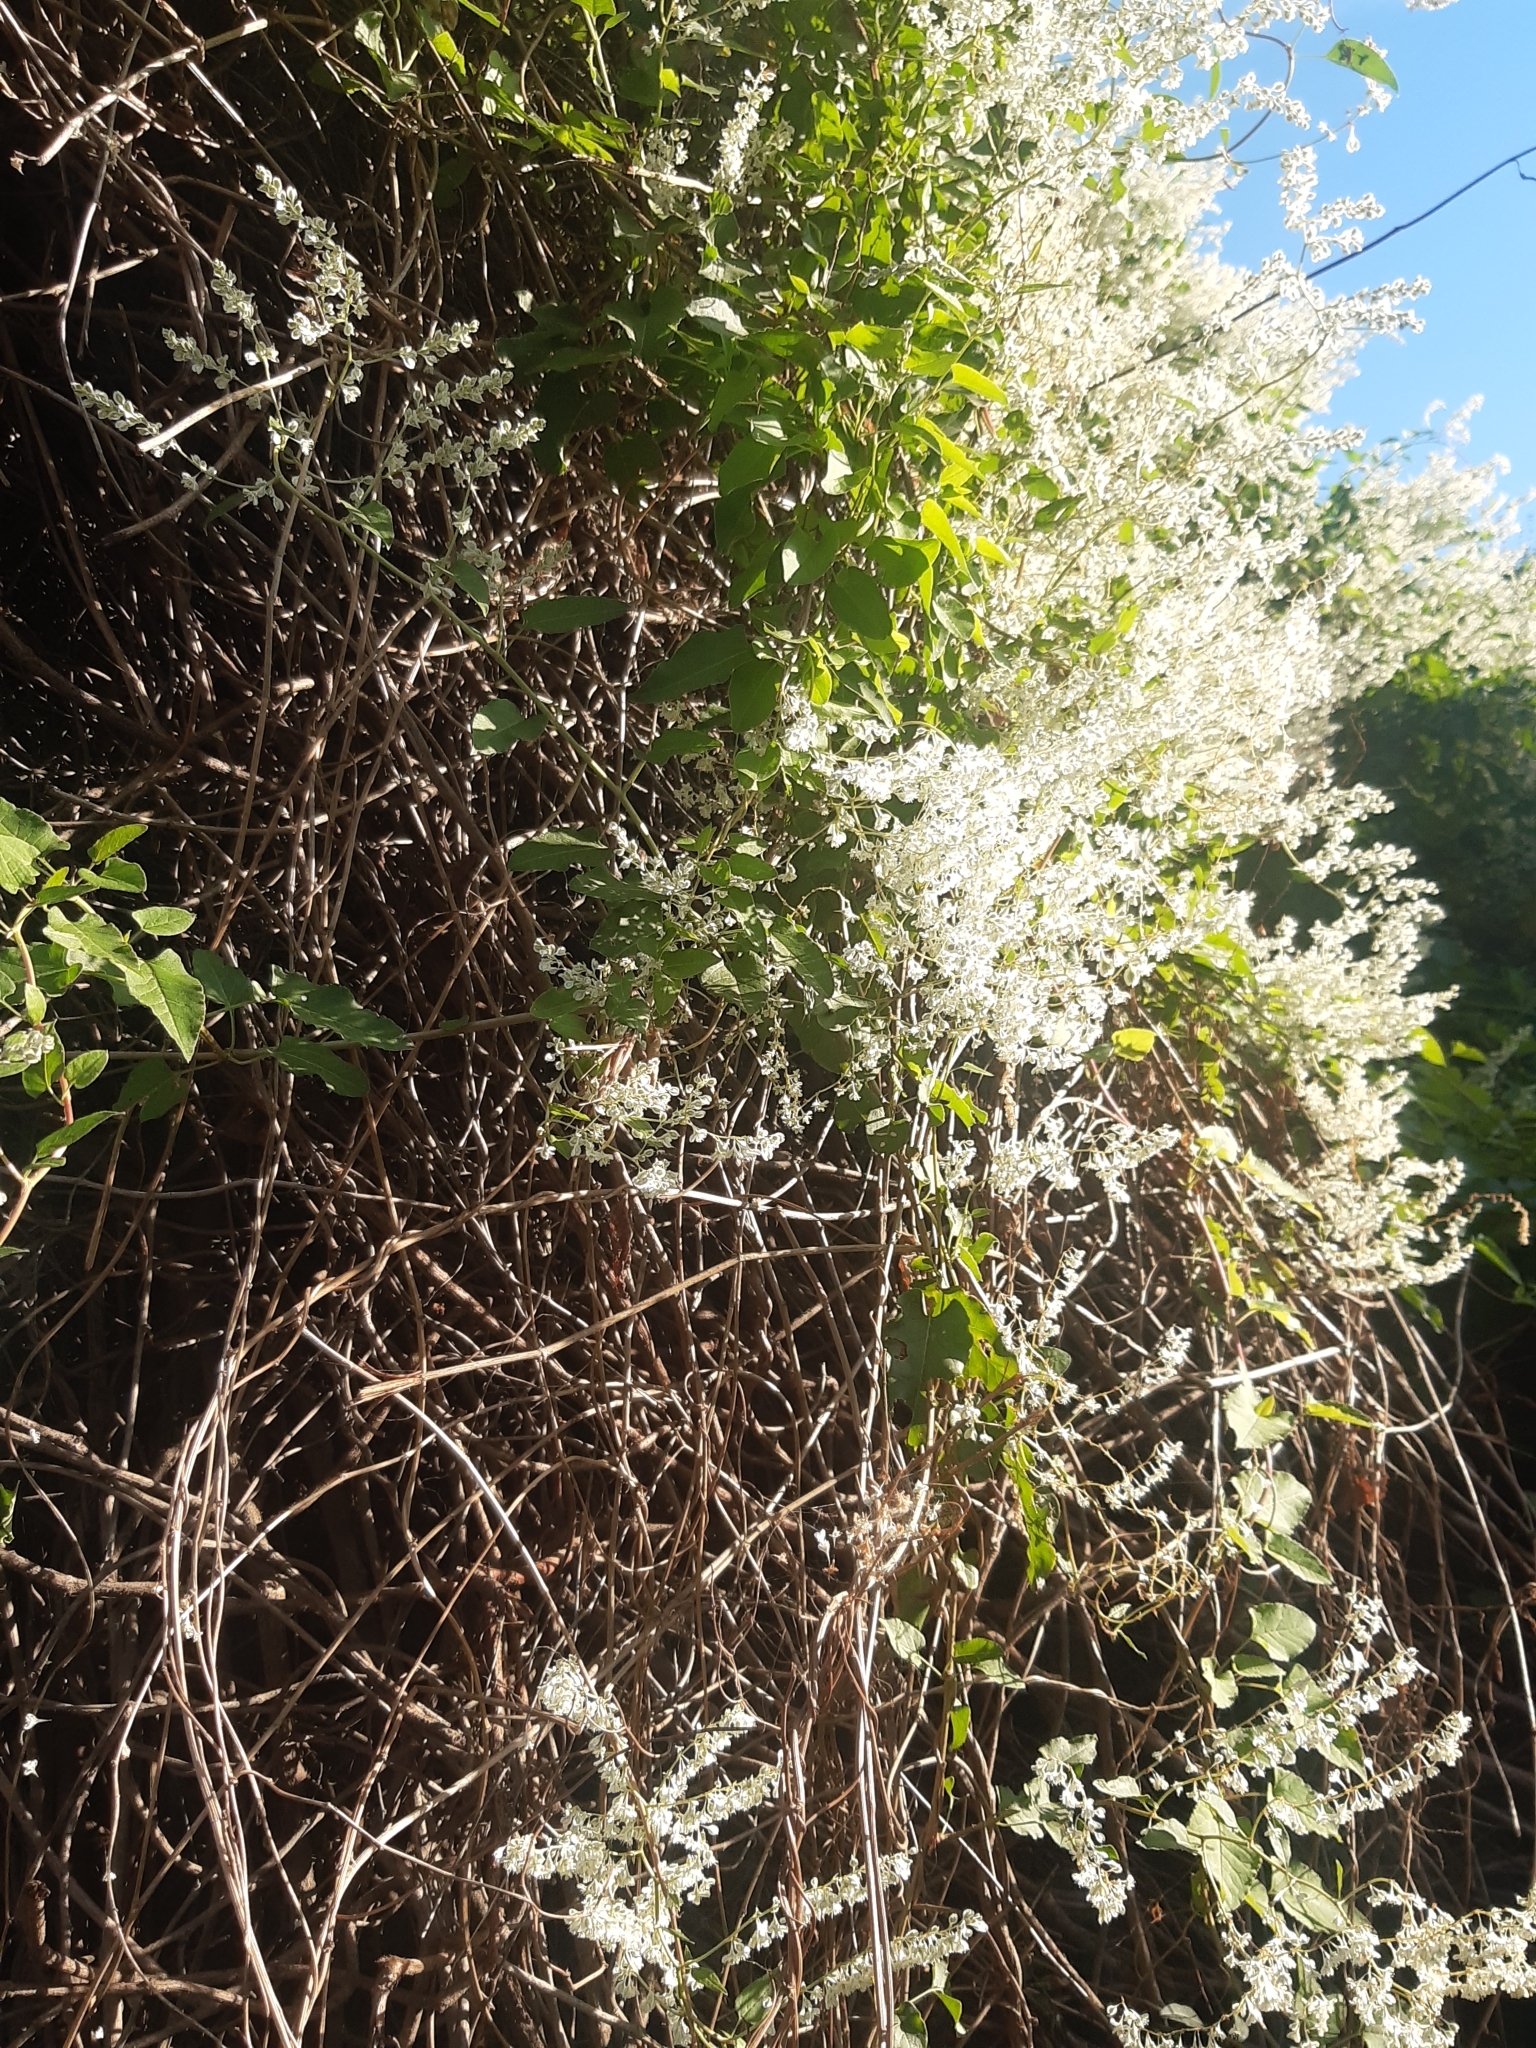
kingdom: Plantae
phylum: Tracheophyta
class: Magnoliopsida
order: Caryophyllales
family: Polygonaceae
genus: Fallopia
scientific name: Fallopia baldschuanica
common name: Russian-vine
